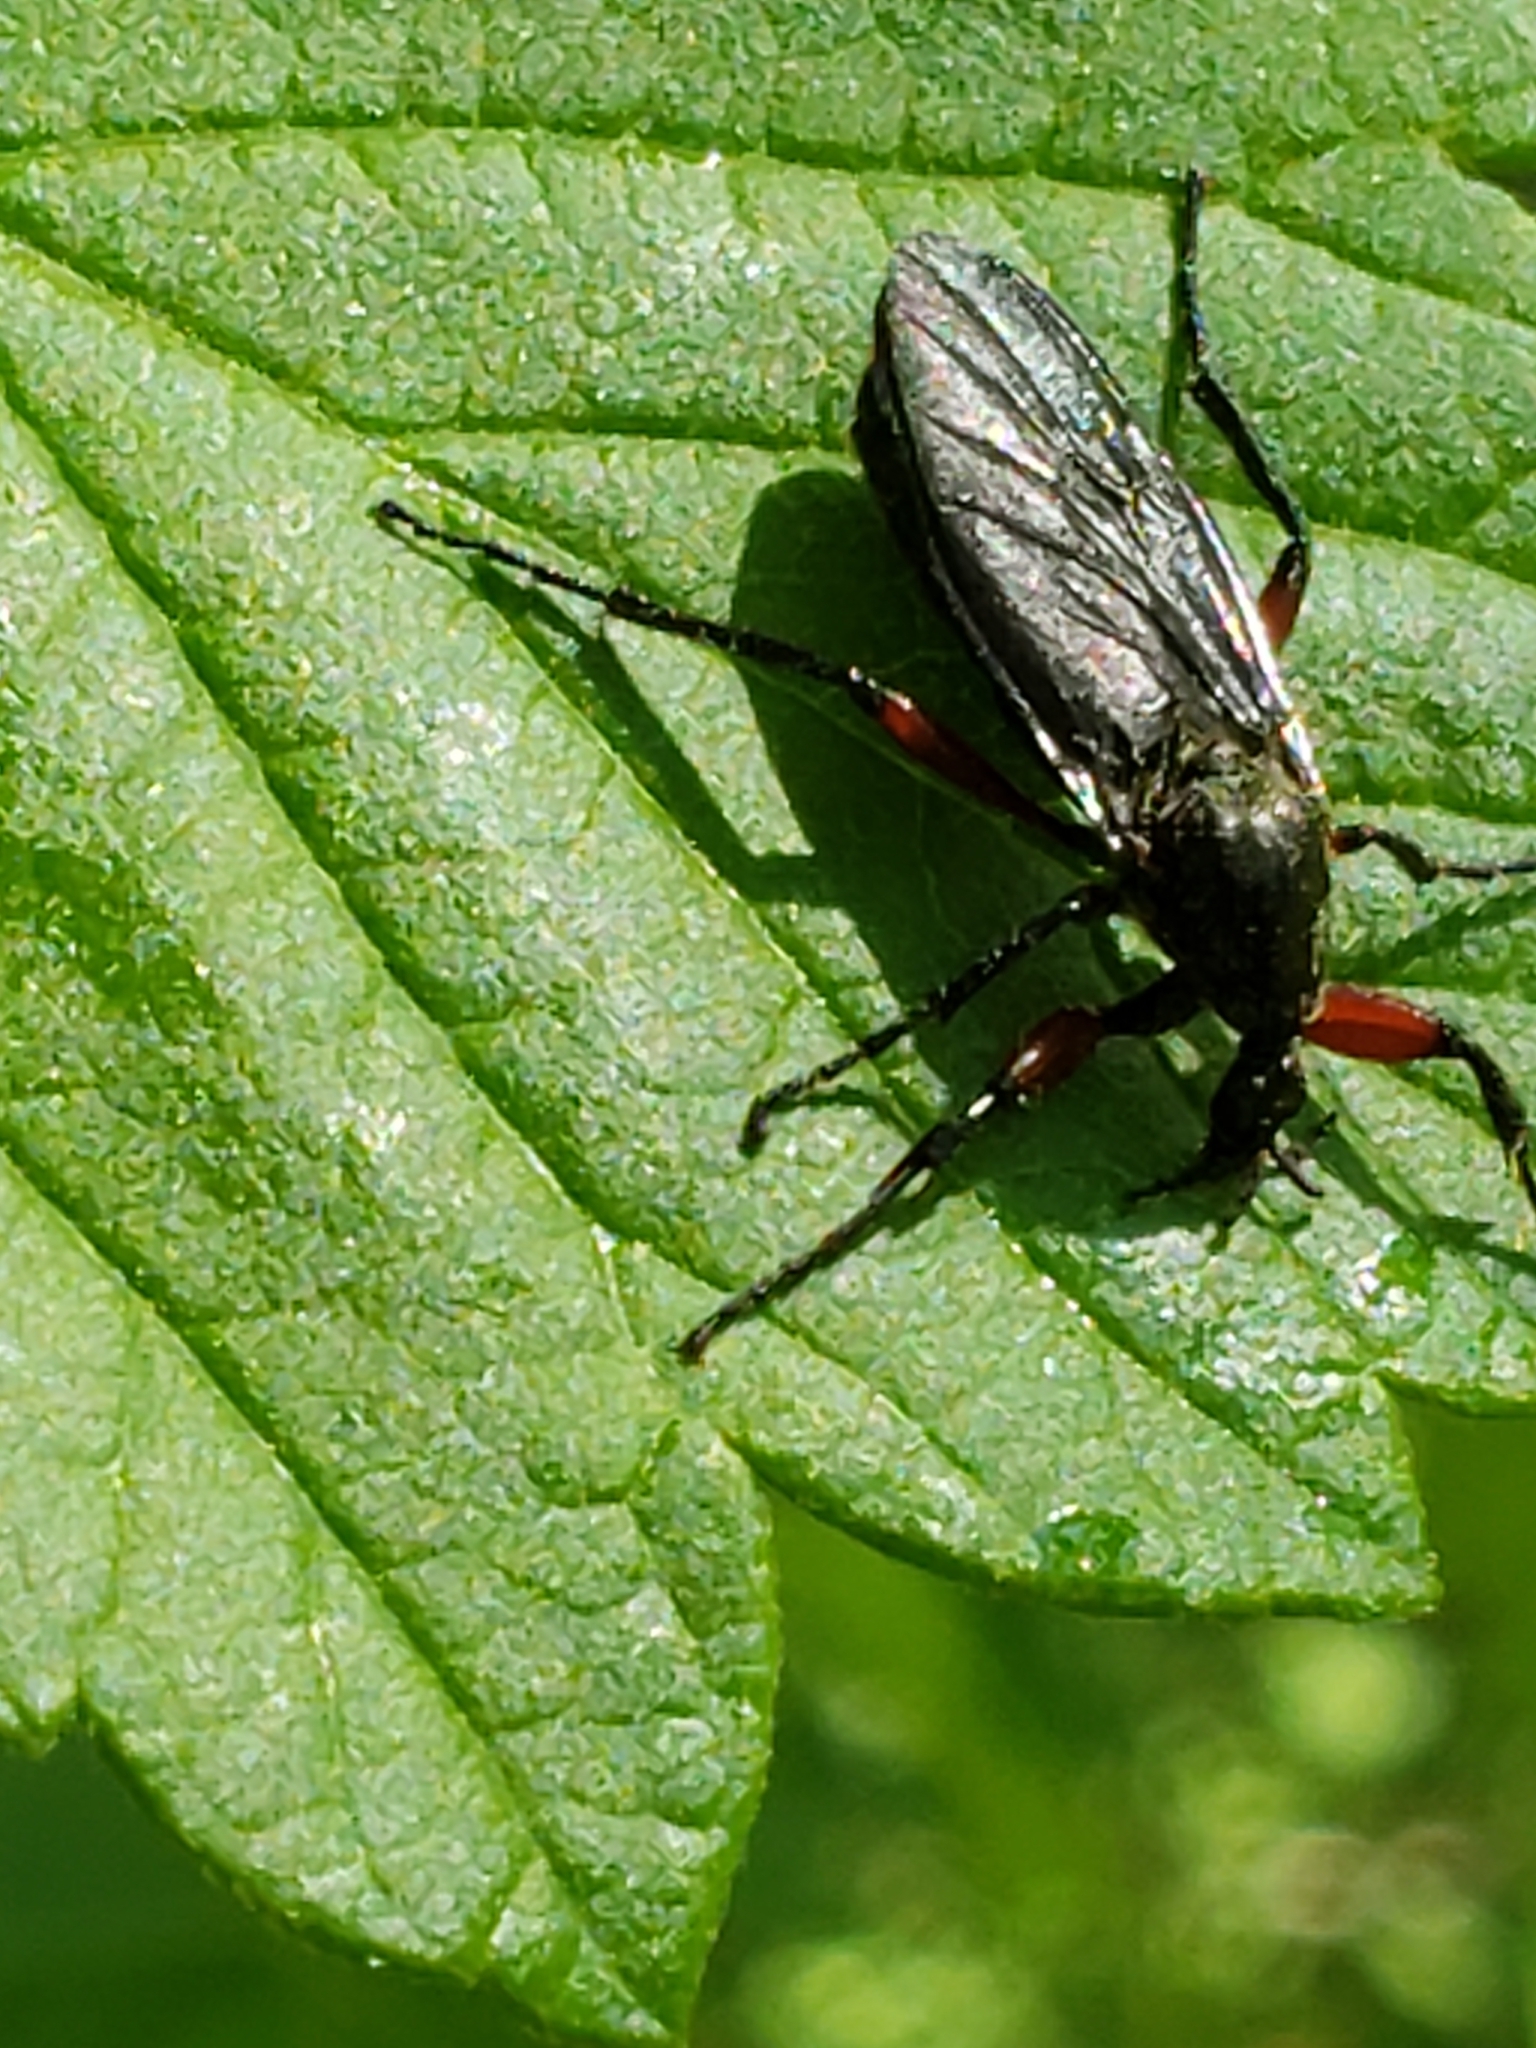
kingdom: Animalia
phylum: Arthropoda
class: Insecta
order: Diptera
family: Bibionidae
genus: Bibio
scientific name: Bibio femoratus
